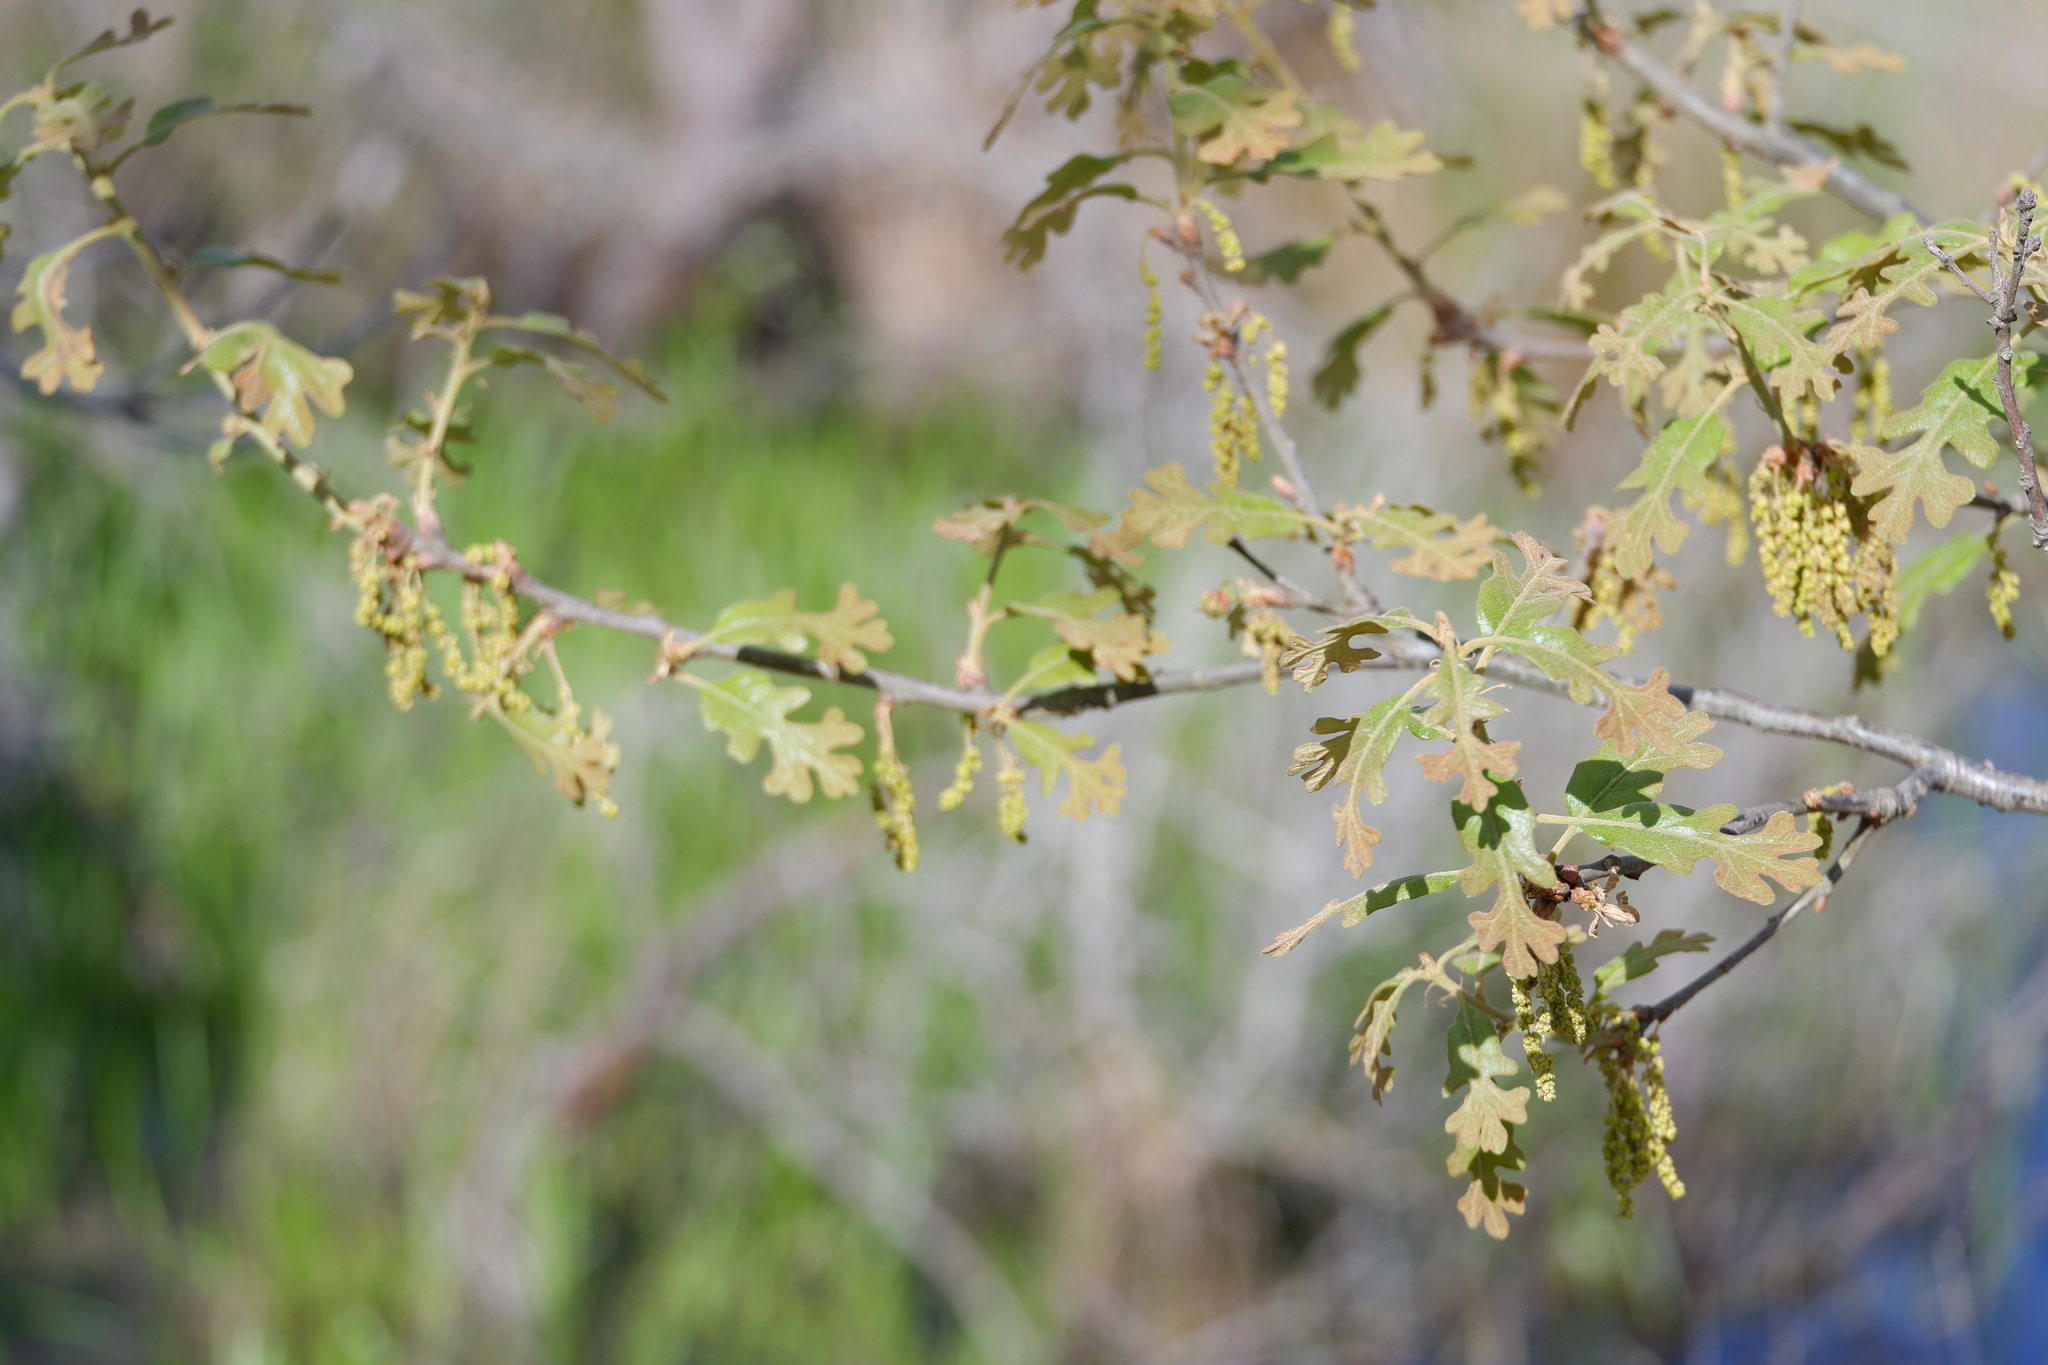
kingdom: Plantae
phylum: Tracheophyta
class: Magnoliopsida
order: Fagales
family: Fagaceae
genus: Quercus
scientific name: Quercus stellata
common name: Post oak
